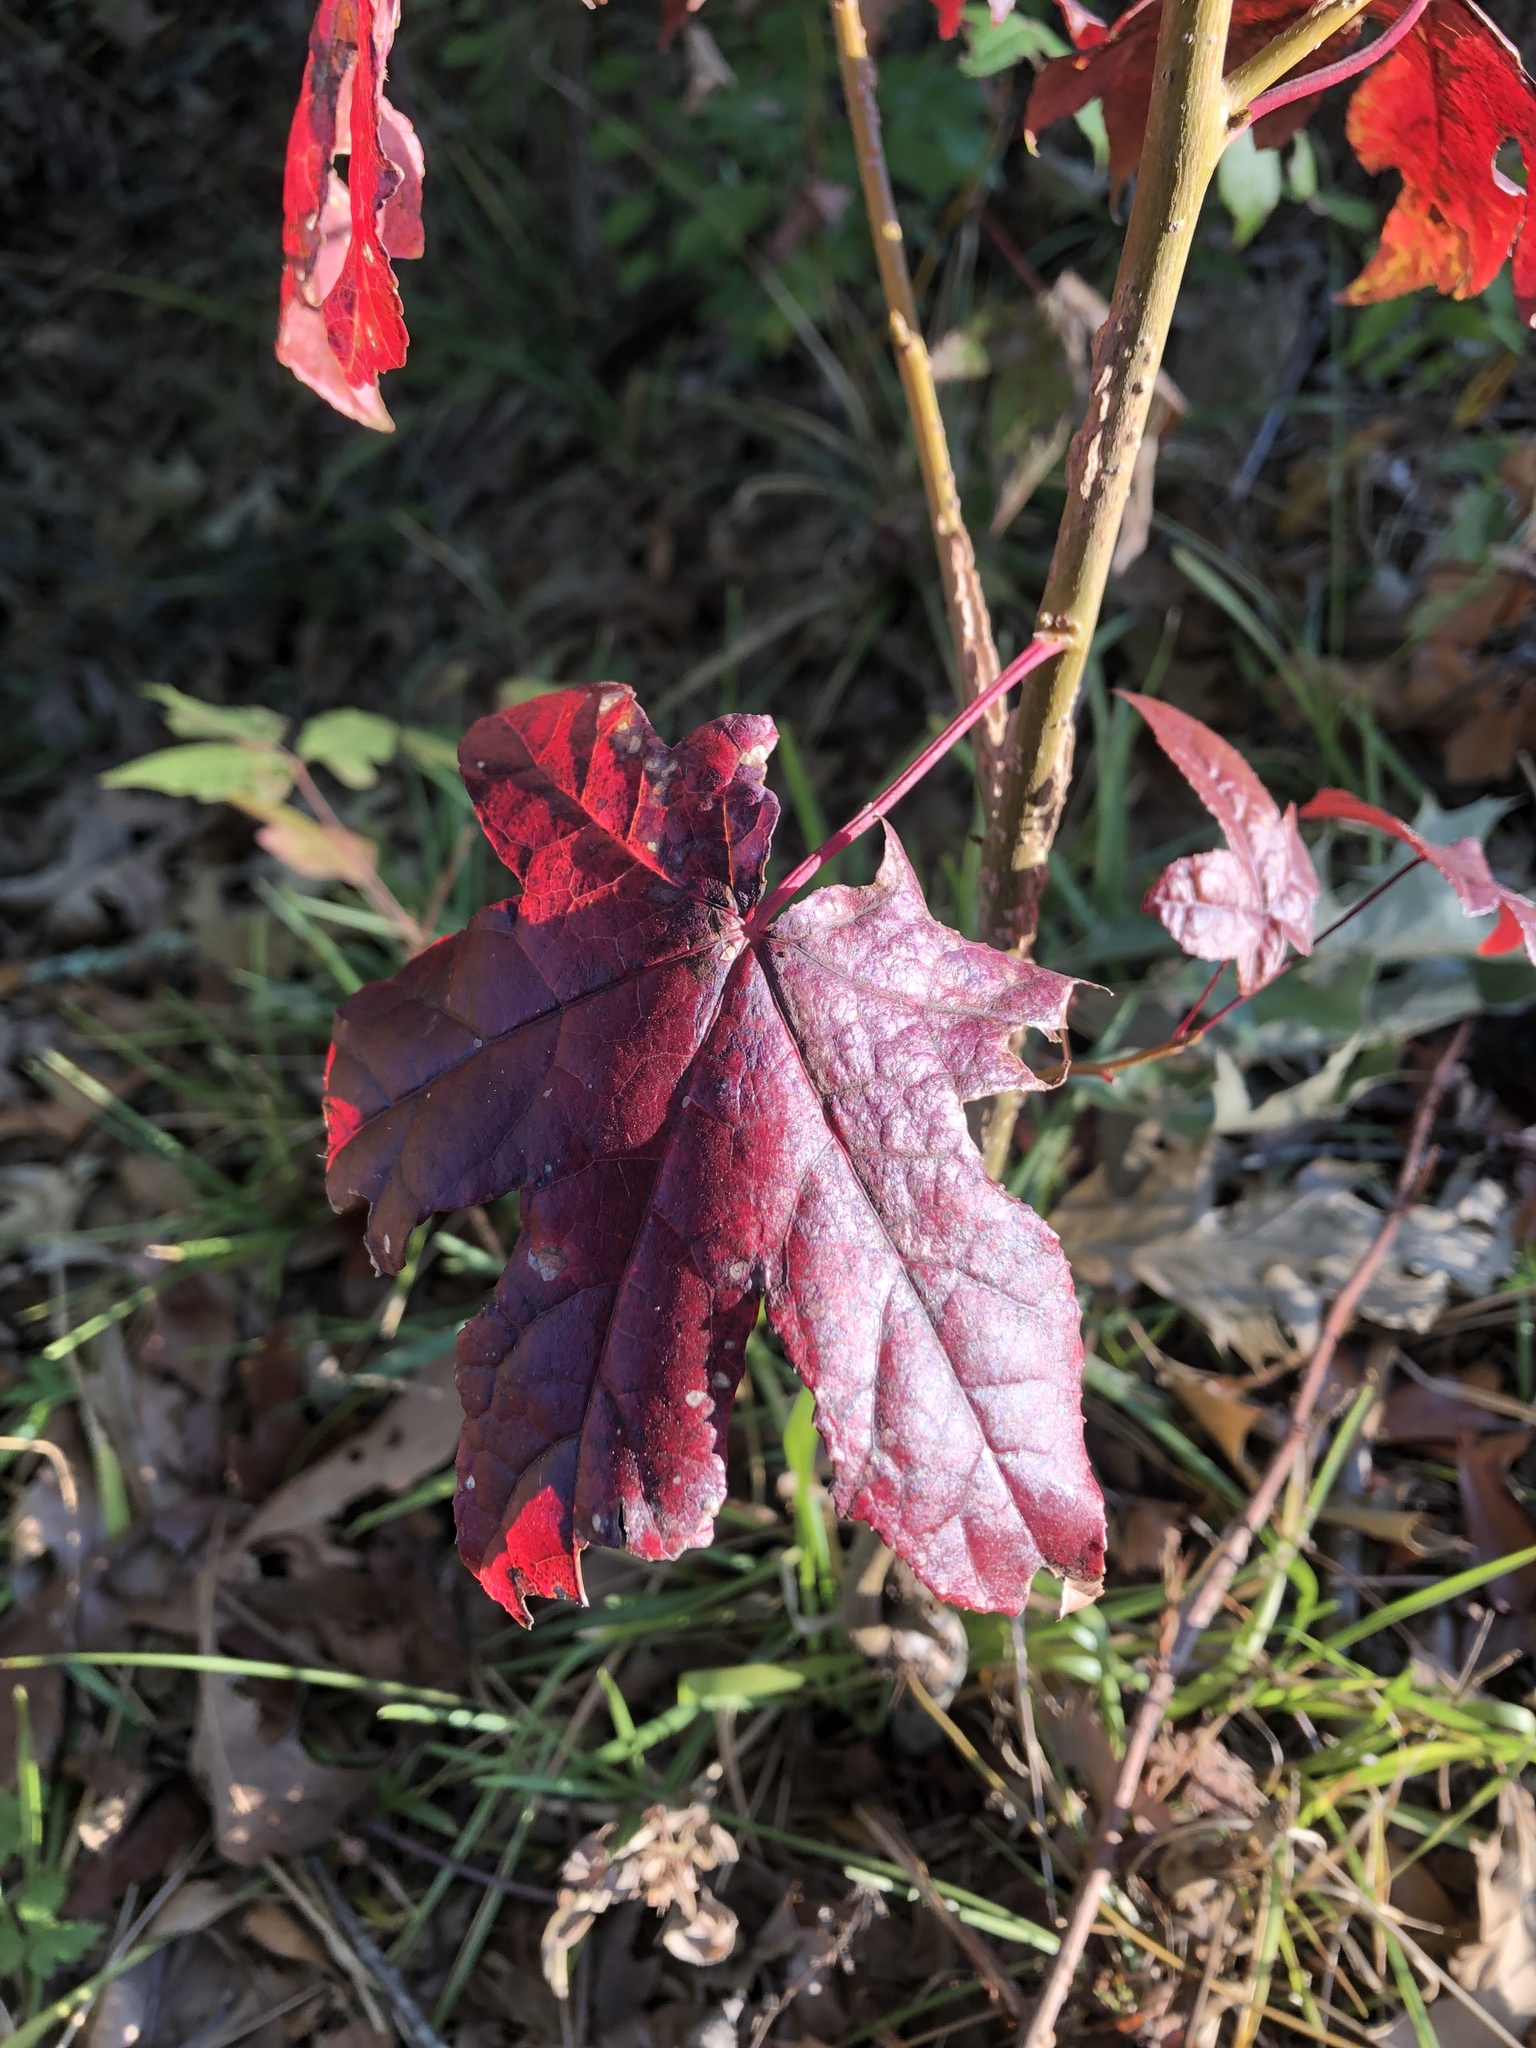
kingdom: Plantae
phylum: Tracheophyta
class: Magnoliopsida
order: Saxifragales
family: Altingiaceae
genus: Liquidambar
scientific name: Liquidambar styraciflua
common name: Sweet gum
